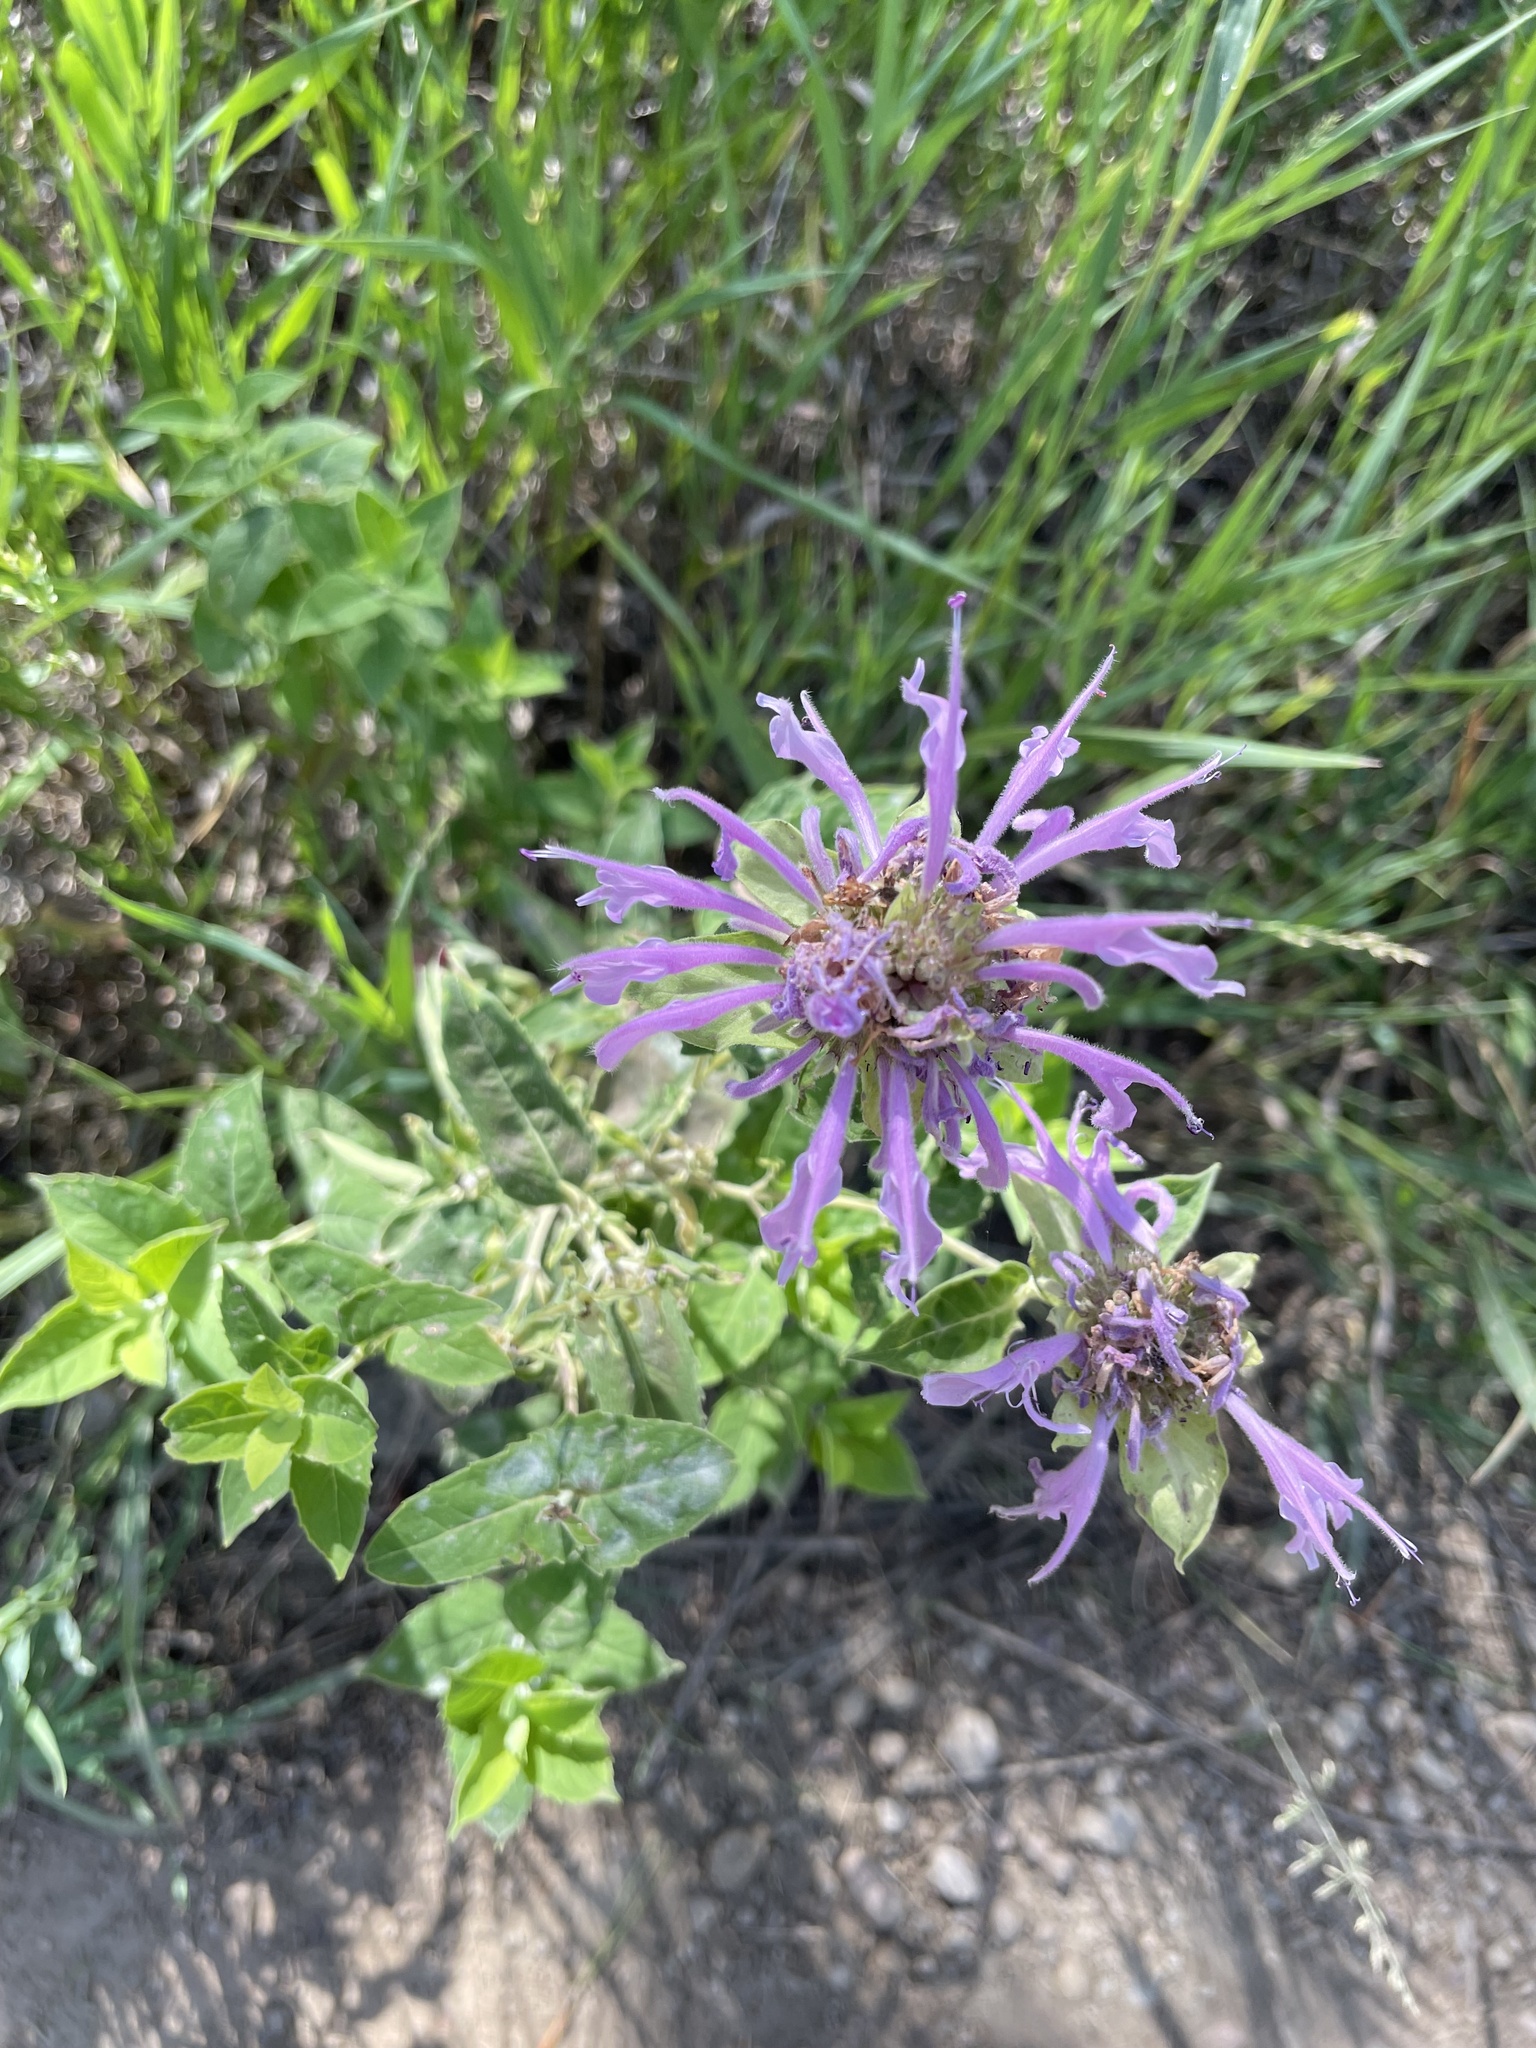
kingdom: Plantae
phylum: Tracheophyta
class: Magnoliopsida
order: Lamiales
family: Lamiaceae
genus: Monarda
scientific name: Monarda fistulosa
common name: Purple beebalm
